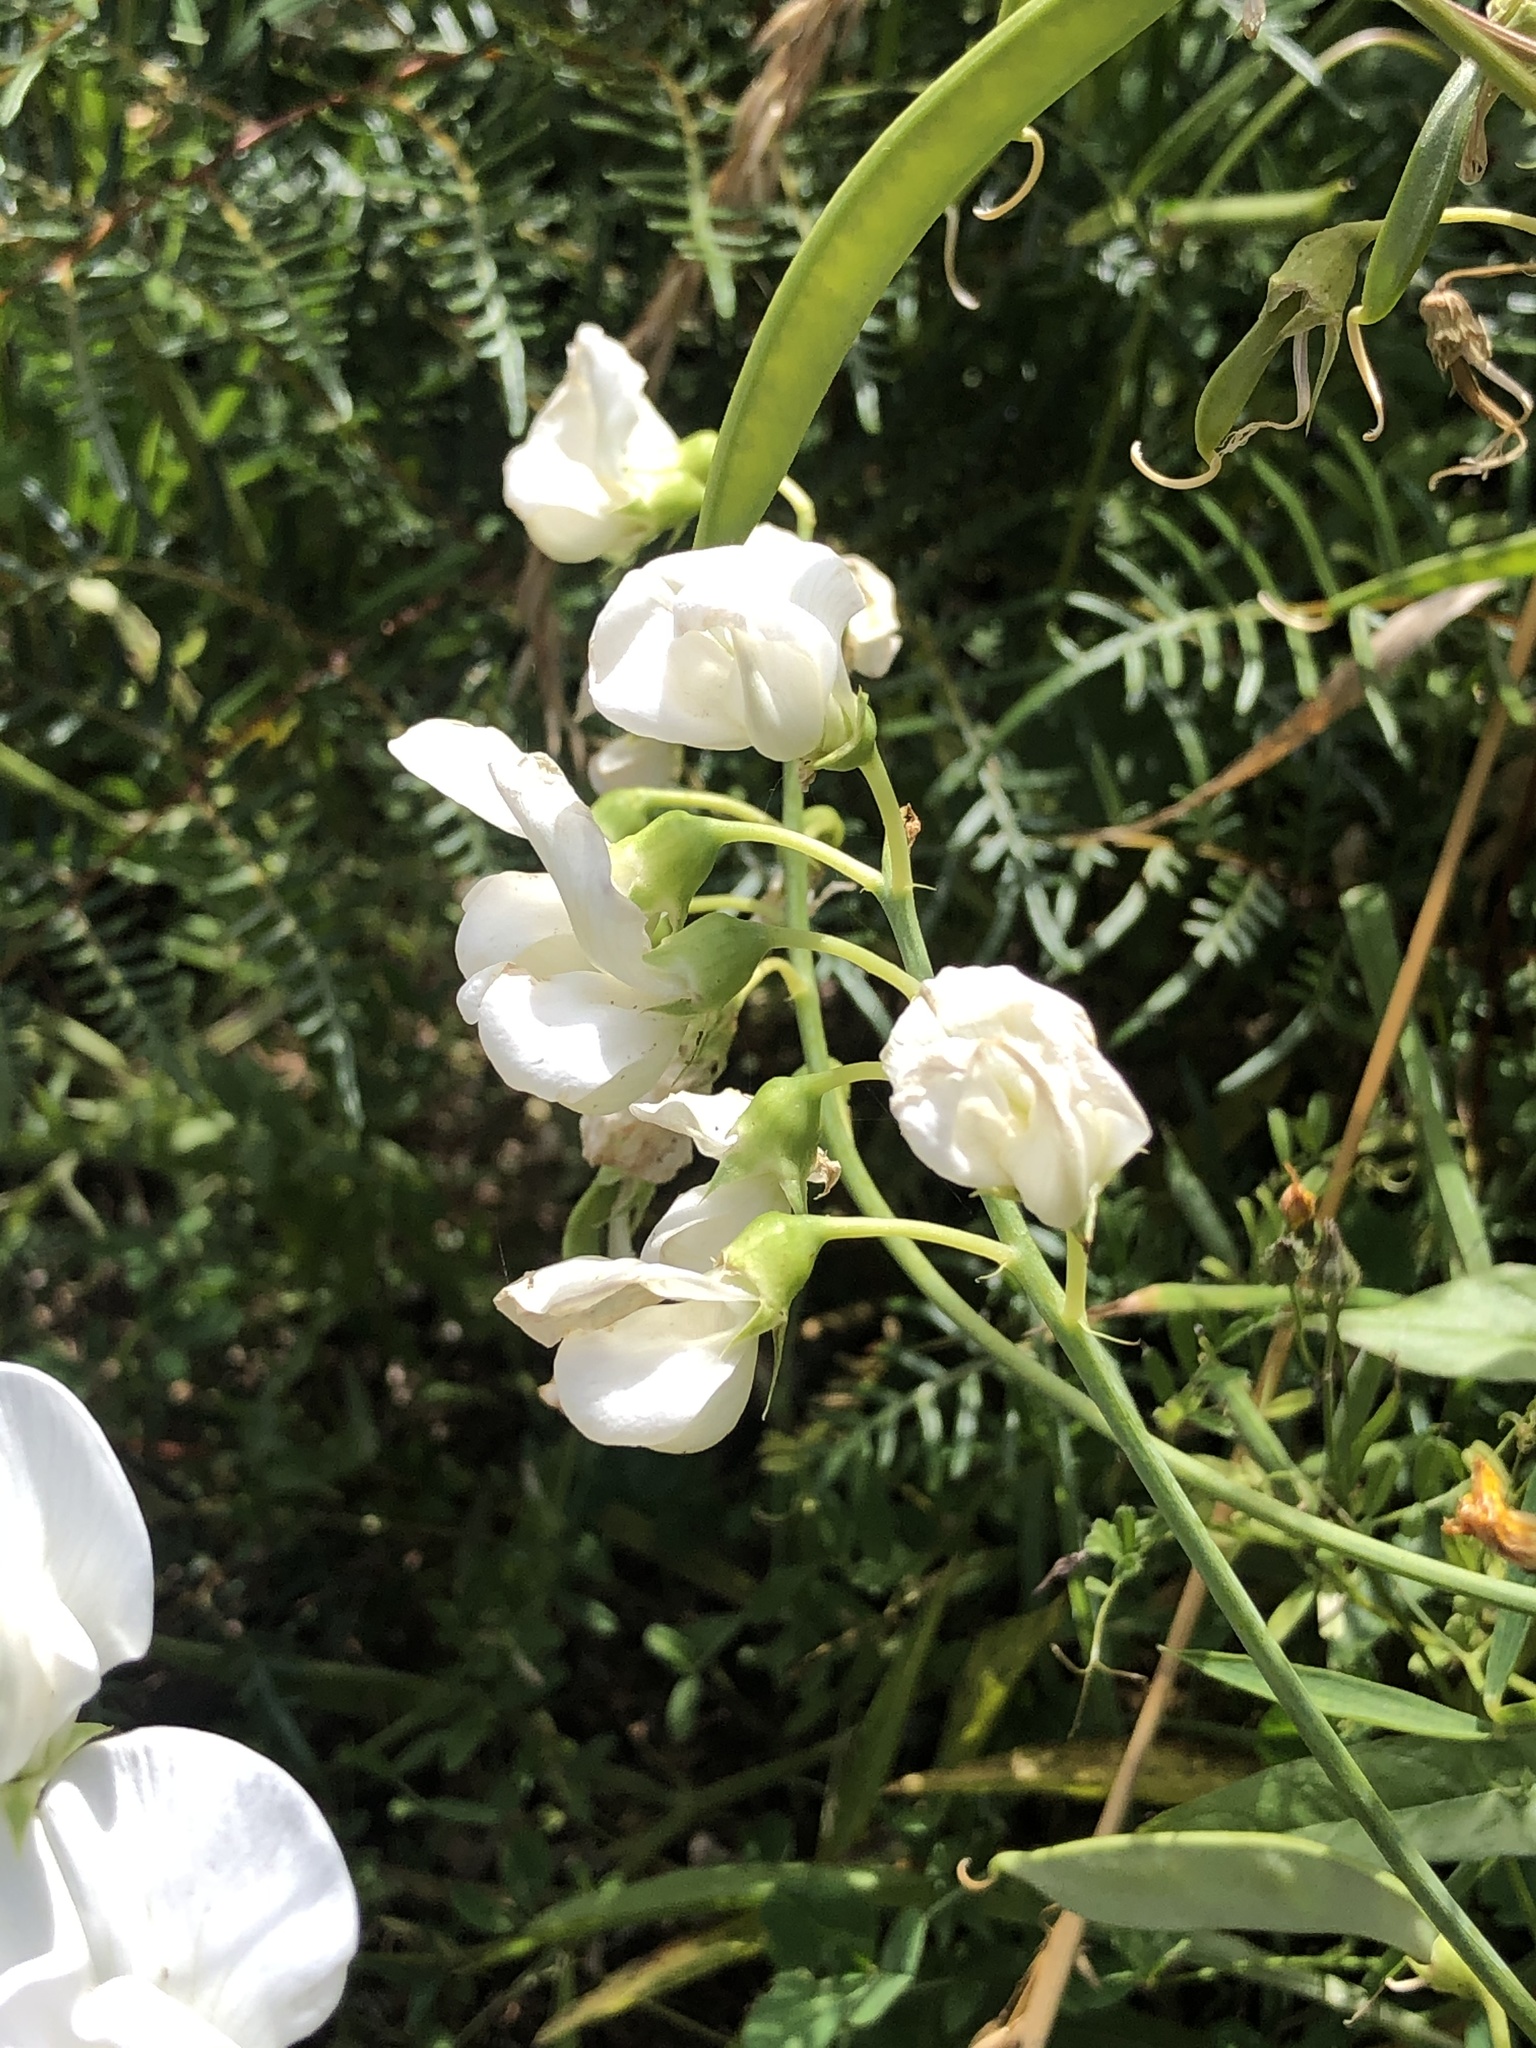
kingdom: Plantae
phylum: Tracheophyta
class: Magnoliopsida
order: Fabales
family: Fabaceae
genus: Lathyrus
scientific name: Lathyrus latifolius
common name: Perennial pea
